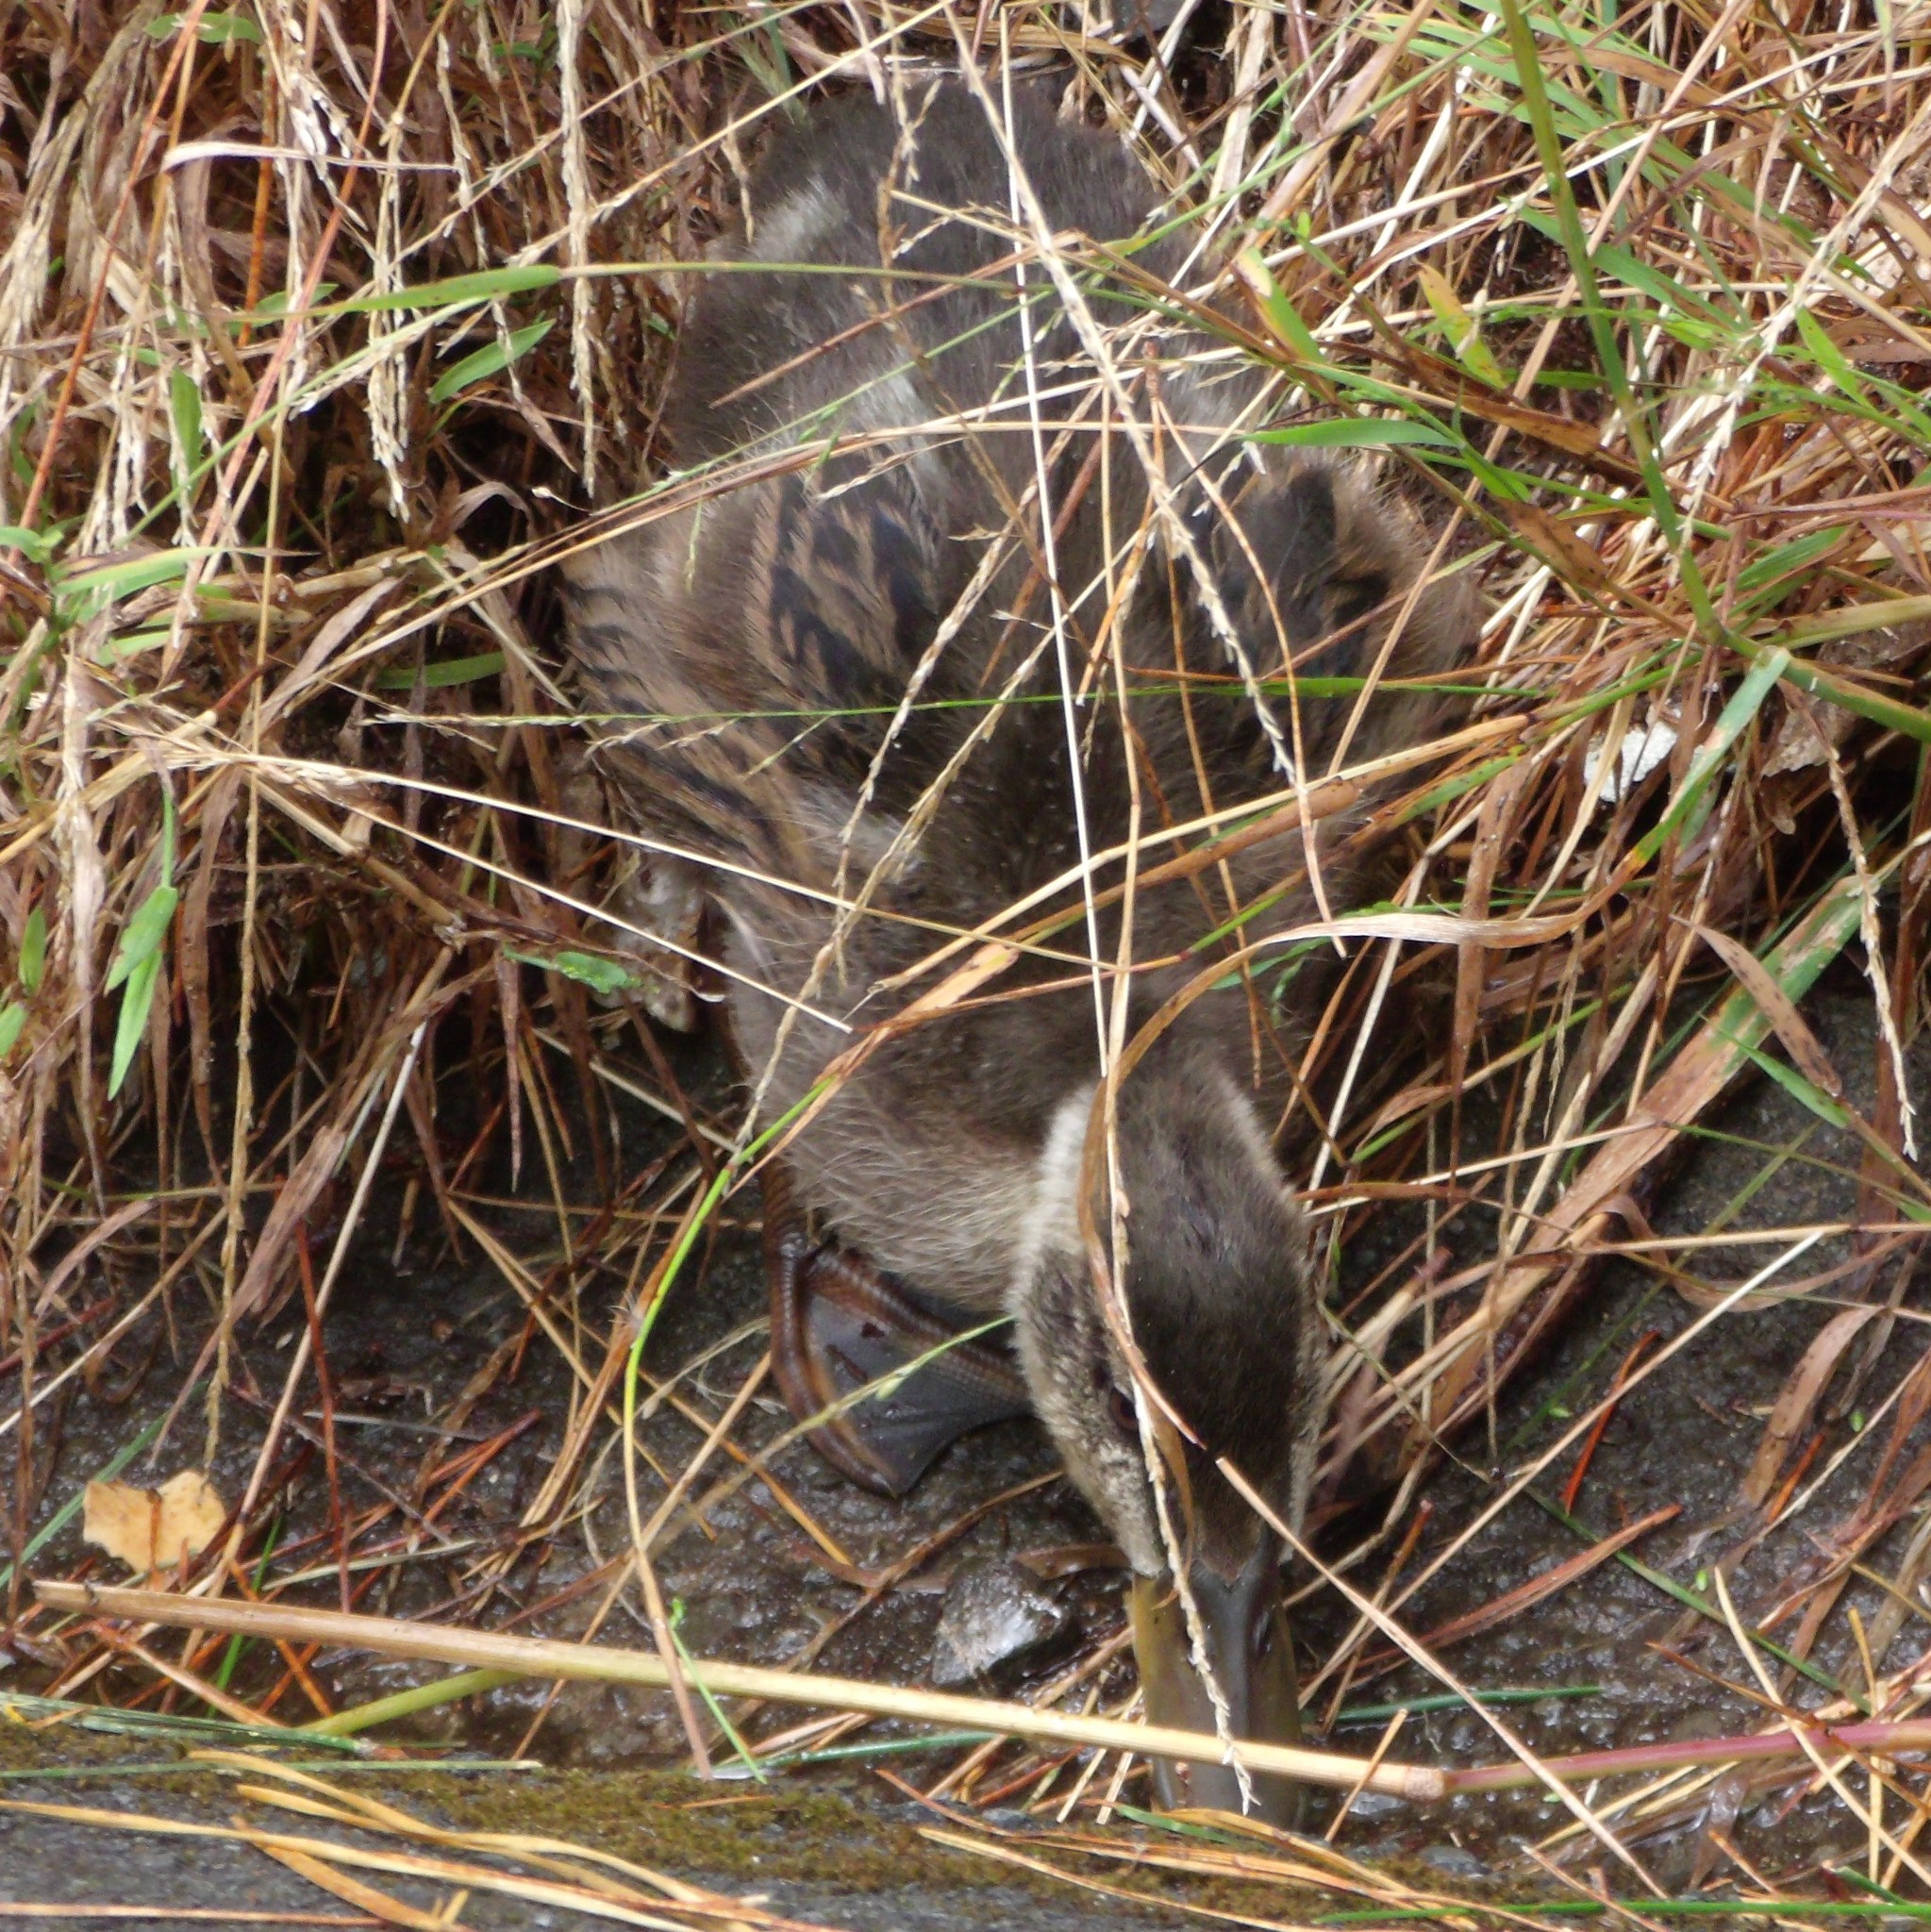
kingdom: Animalia
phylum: Chordata
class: Aves
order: Anseriformes
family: Anatidae
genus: Anas
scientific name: Anas platyrhynchos
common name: Mallard
